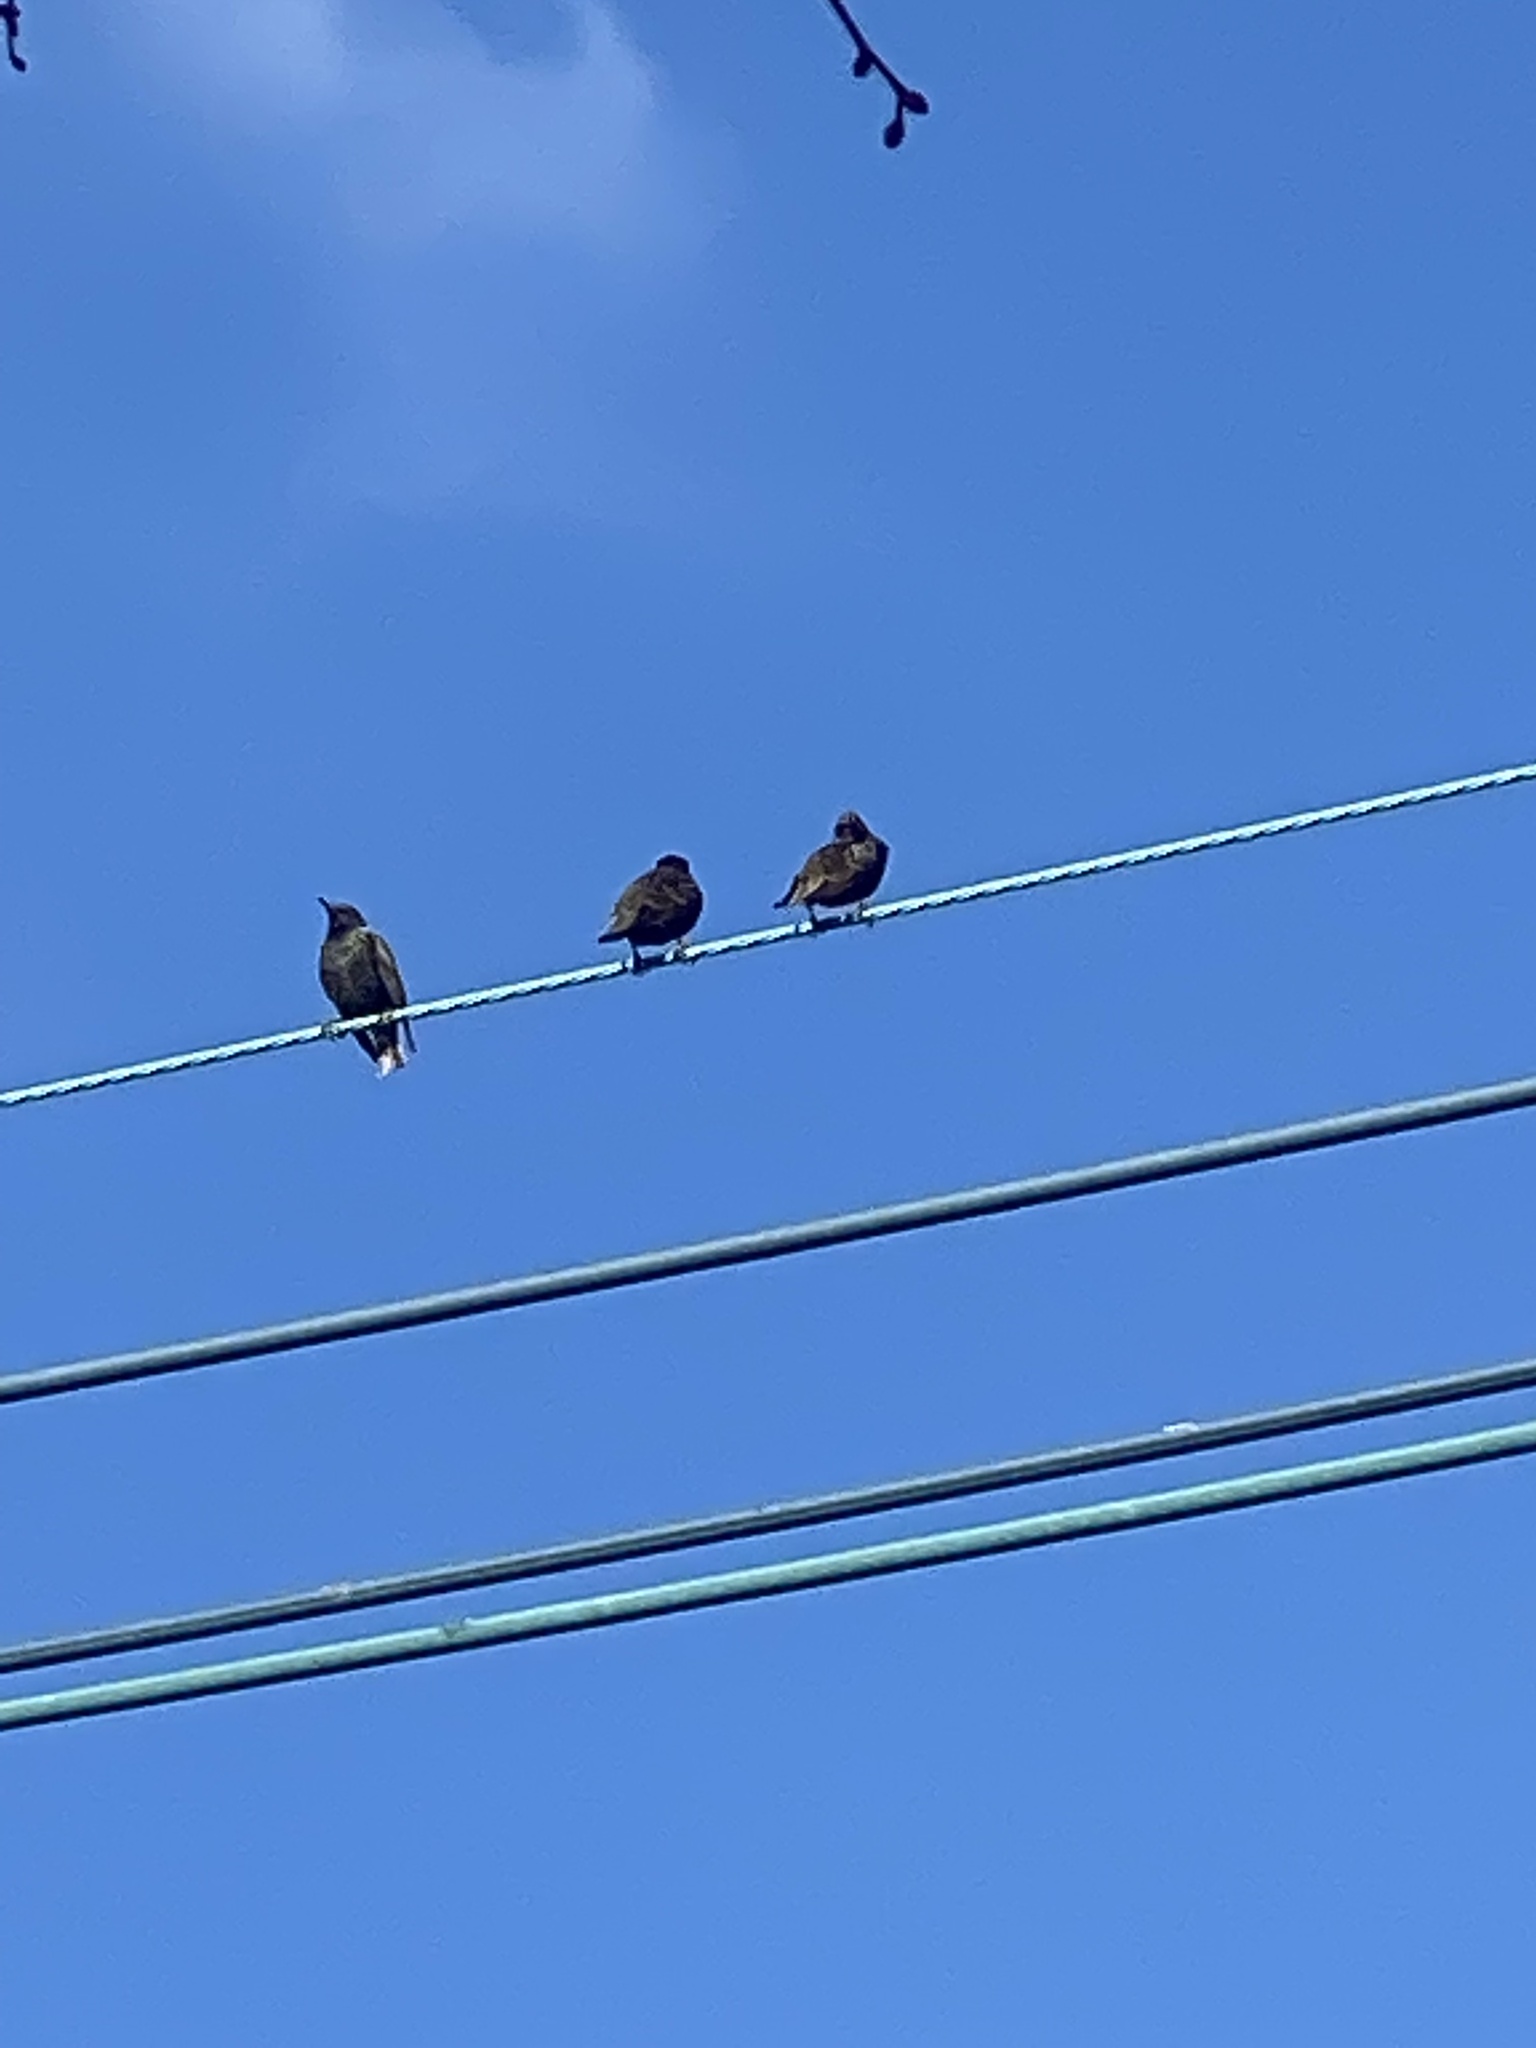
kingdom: Animalia
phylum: Chordata
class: Aves
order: Passeriformes
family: Sturnidae
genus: Sturnus
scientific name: Sturnus vulgaris
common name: Common starling
